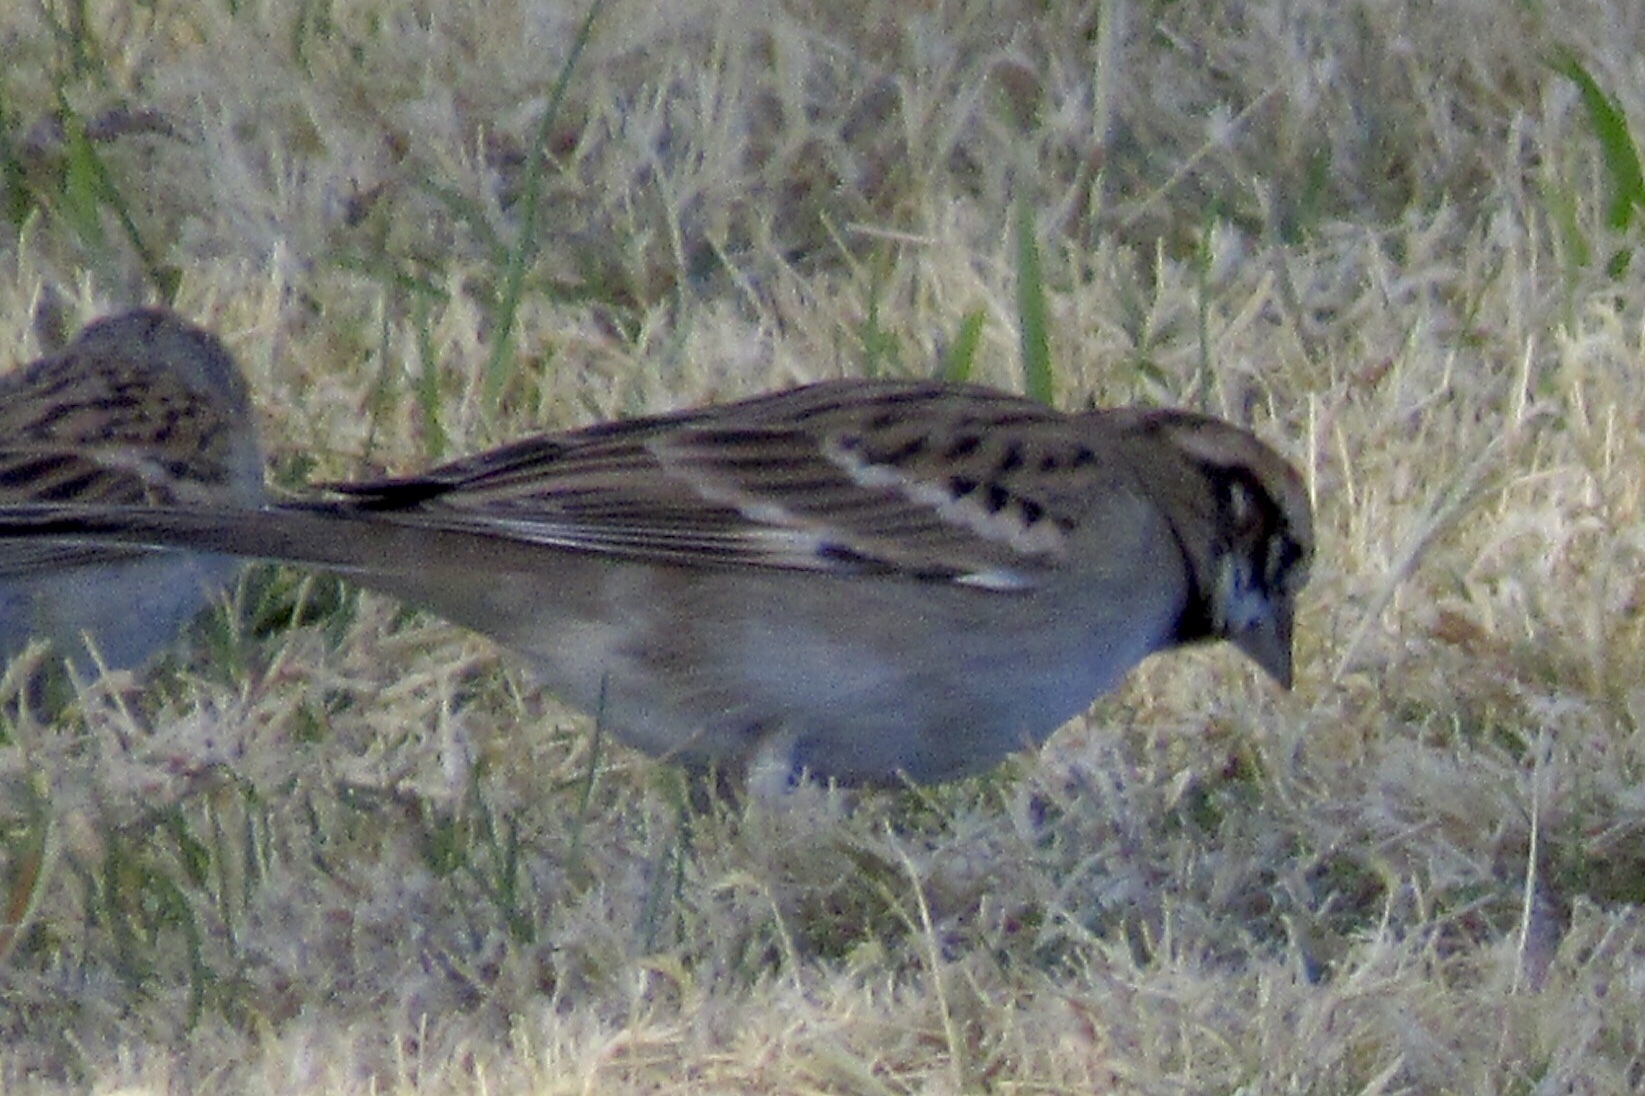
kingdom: Animalia
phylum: Chordata
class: Aves
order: Passeriformes
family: Passerellidae
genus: Chondestes
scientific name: Chondestes grammacus
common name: Lark sparrow
